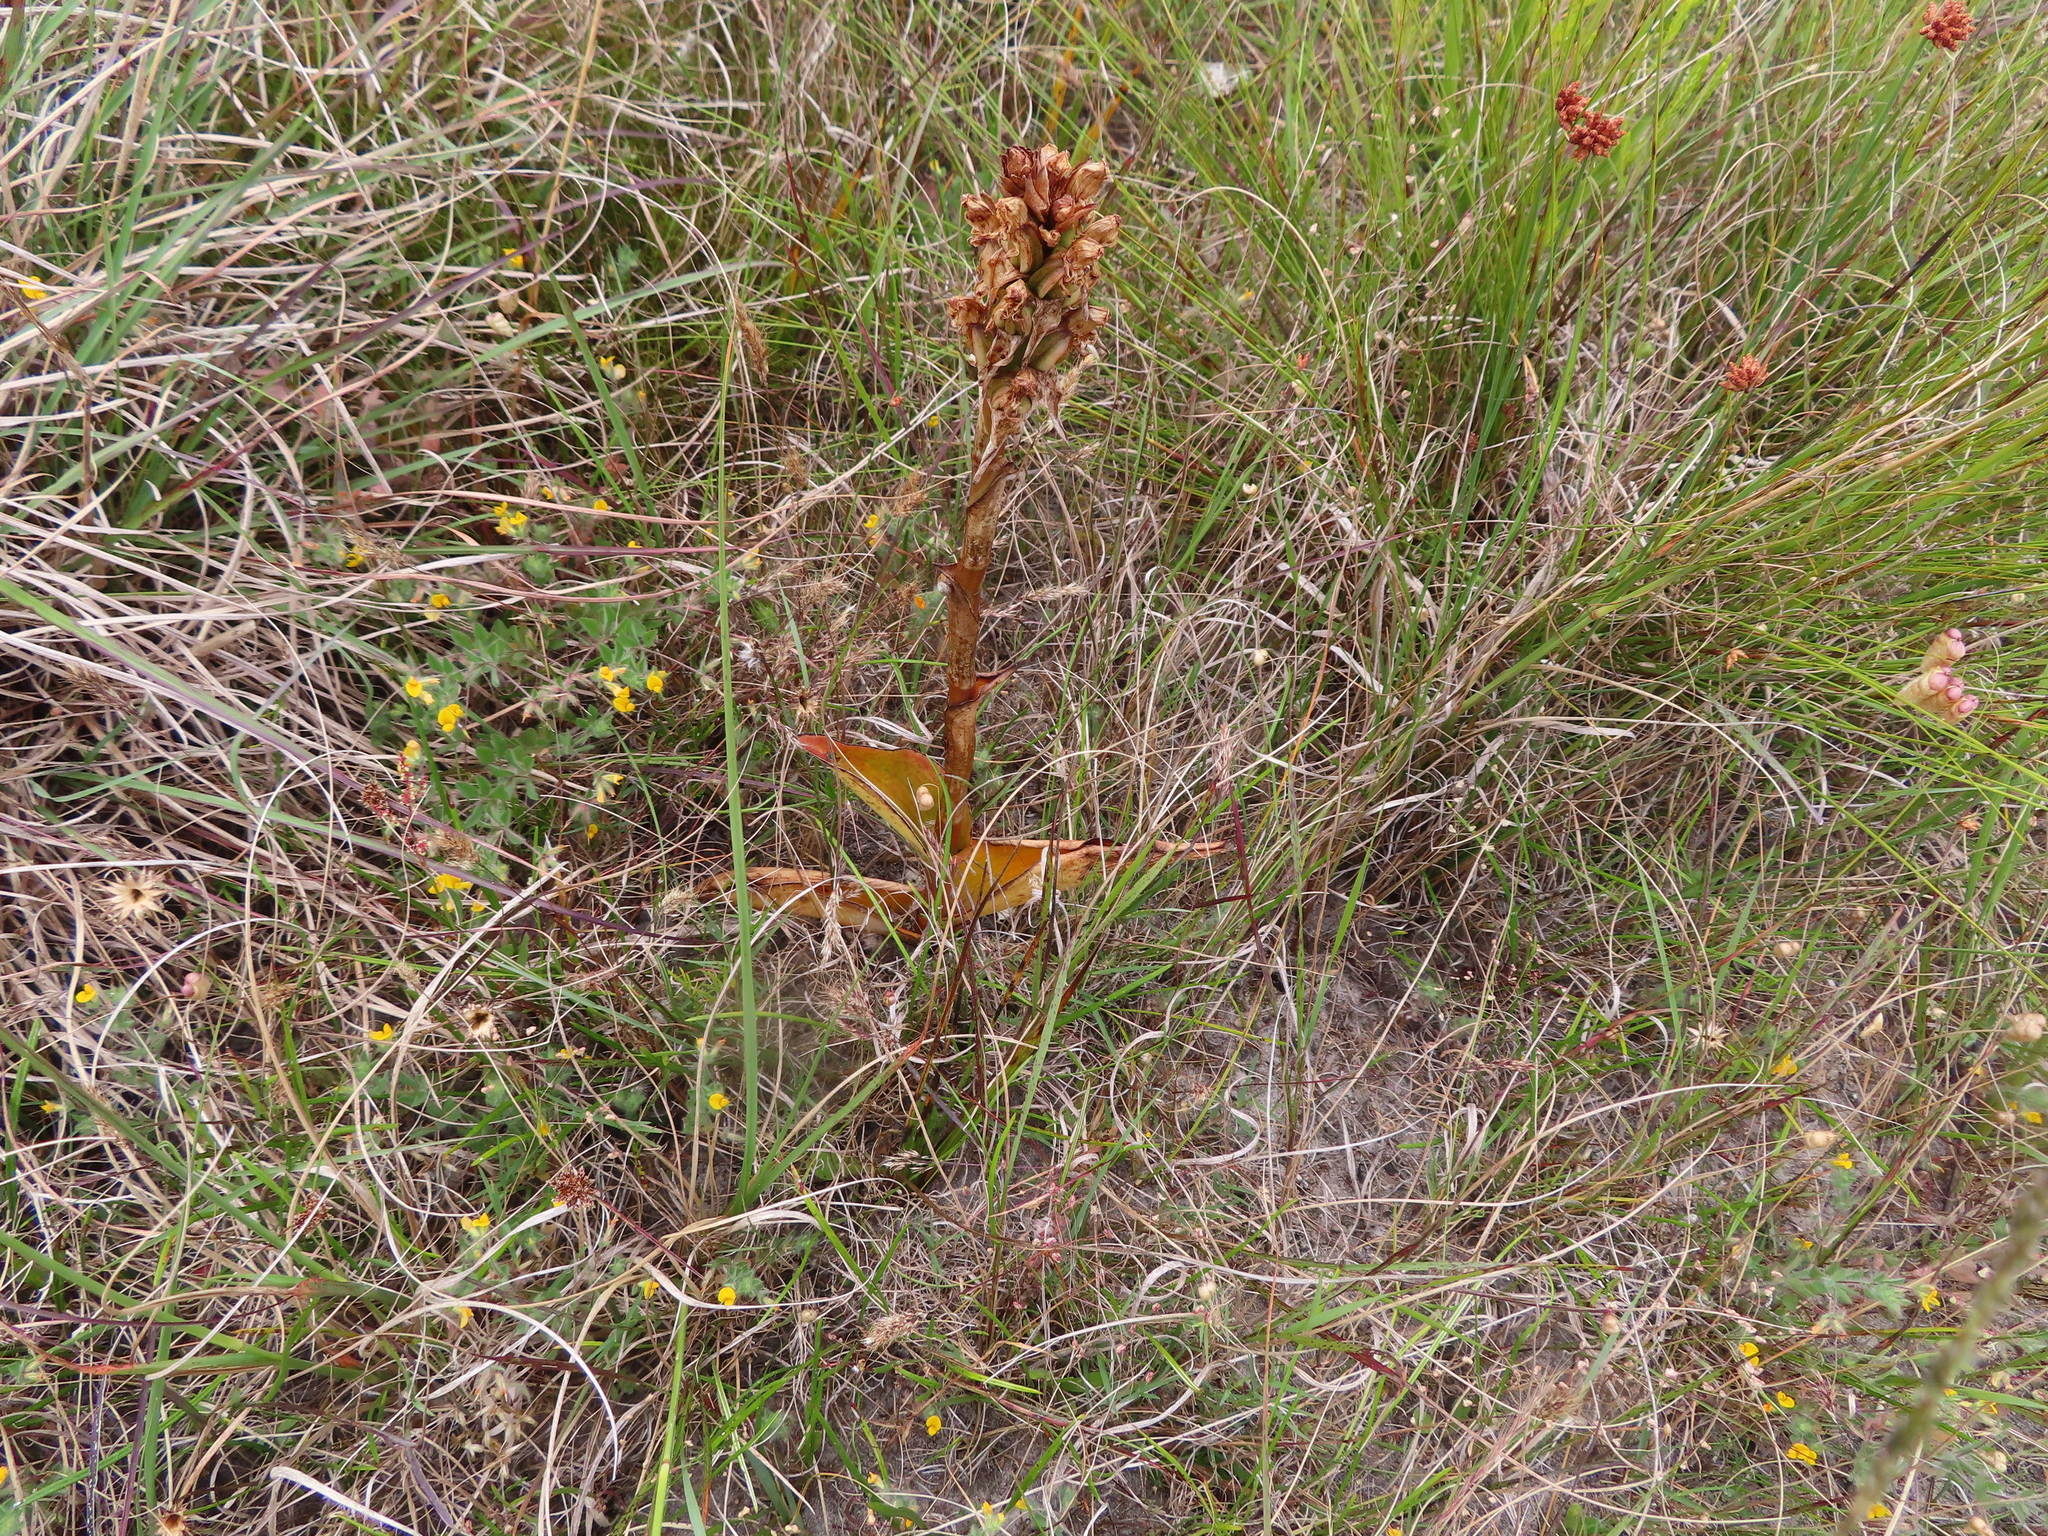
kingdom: Plantae
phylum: Tracheophyta
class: Liliopsida
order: Asparagales
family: Orchidaceae
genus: Satyrium
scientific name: Satyrium carneum
